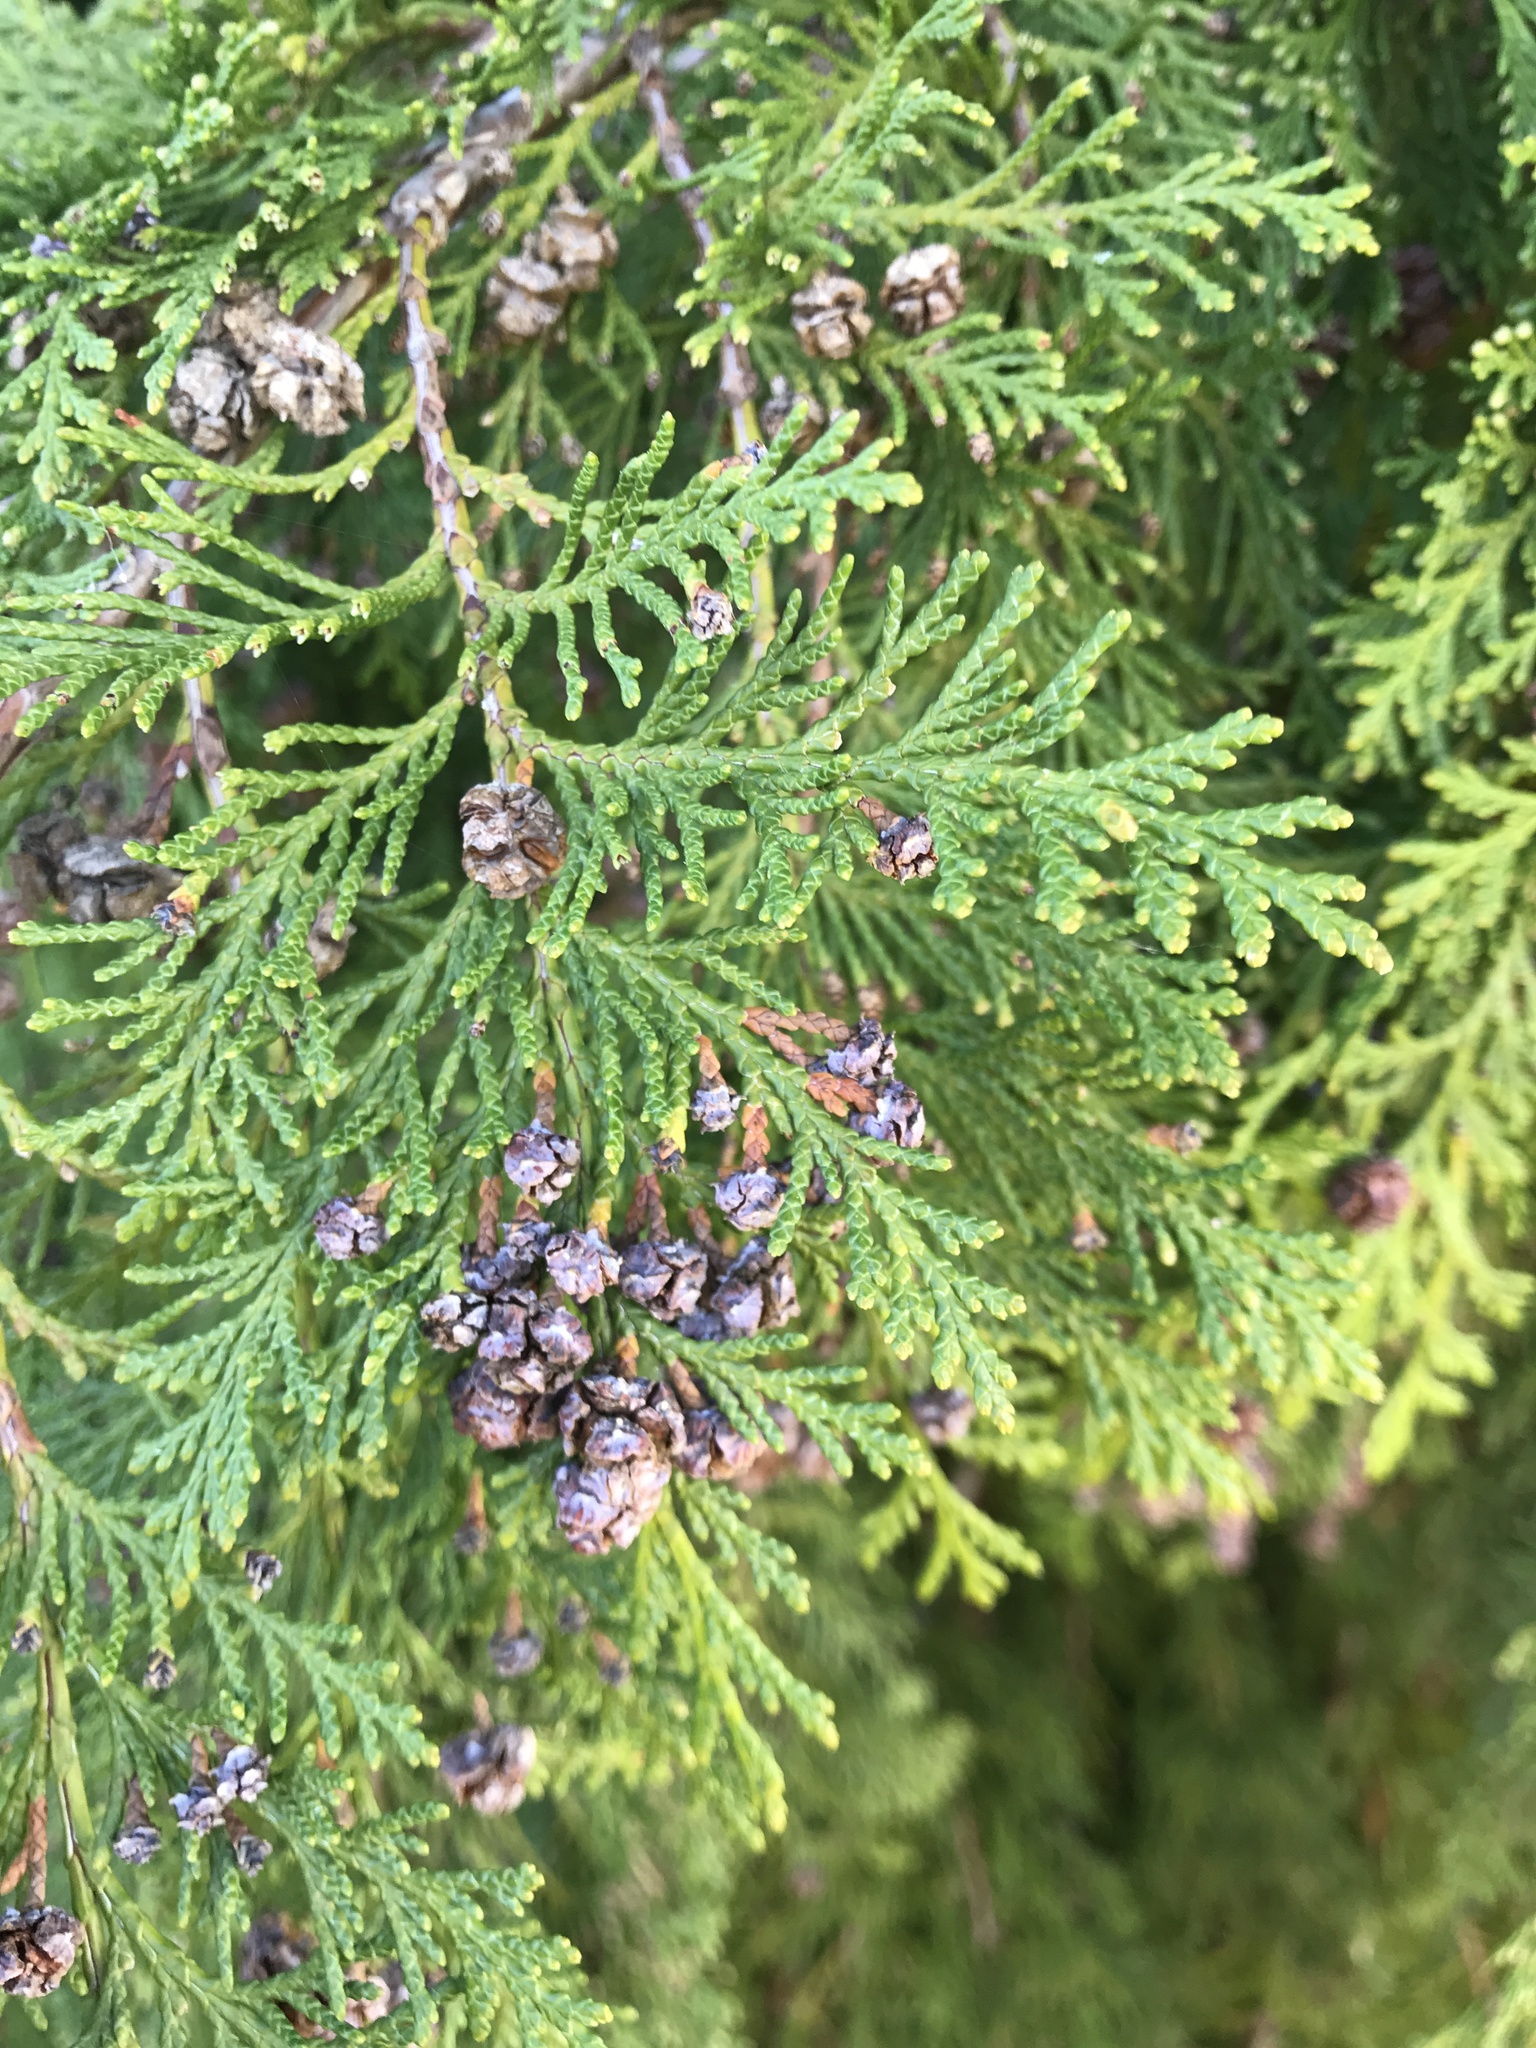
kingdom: Plantae
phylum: Tracheophyta
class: Pinopsida
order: Pinales
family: Cupressaceae
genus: Thuja
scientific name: Thuja plicata
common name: Western red-cedar
